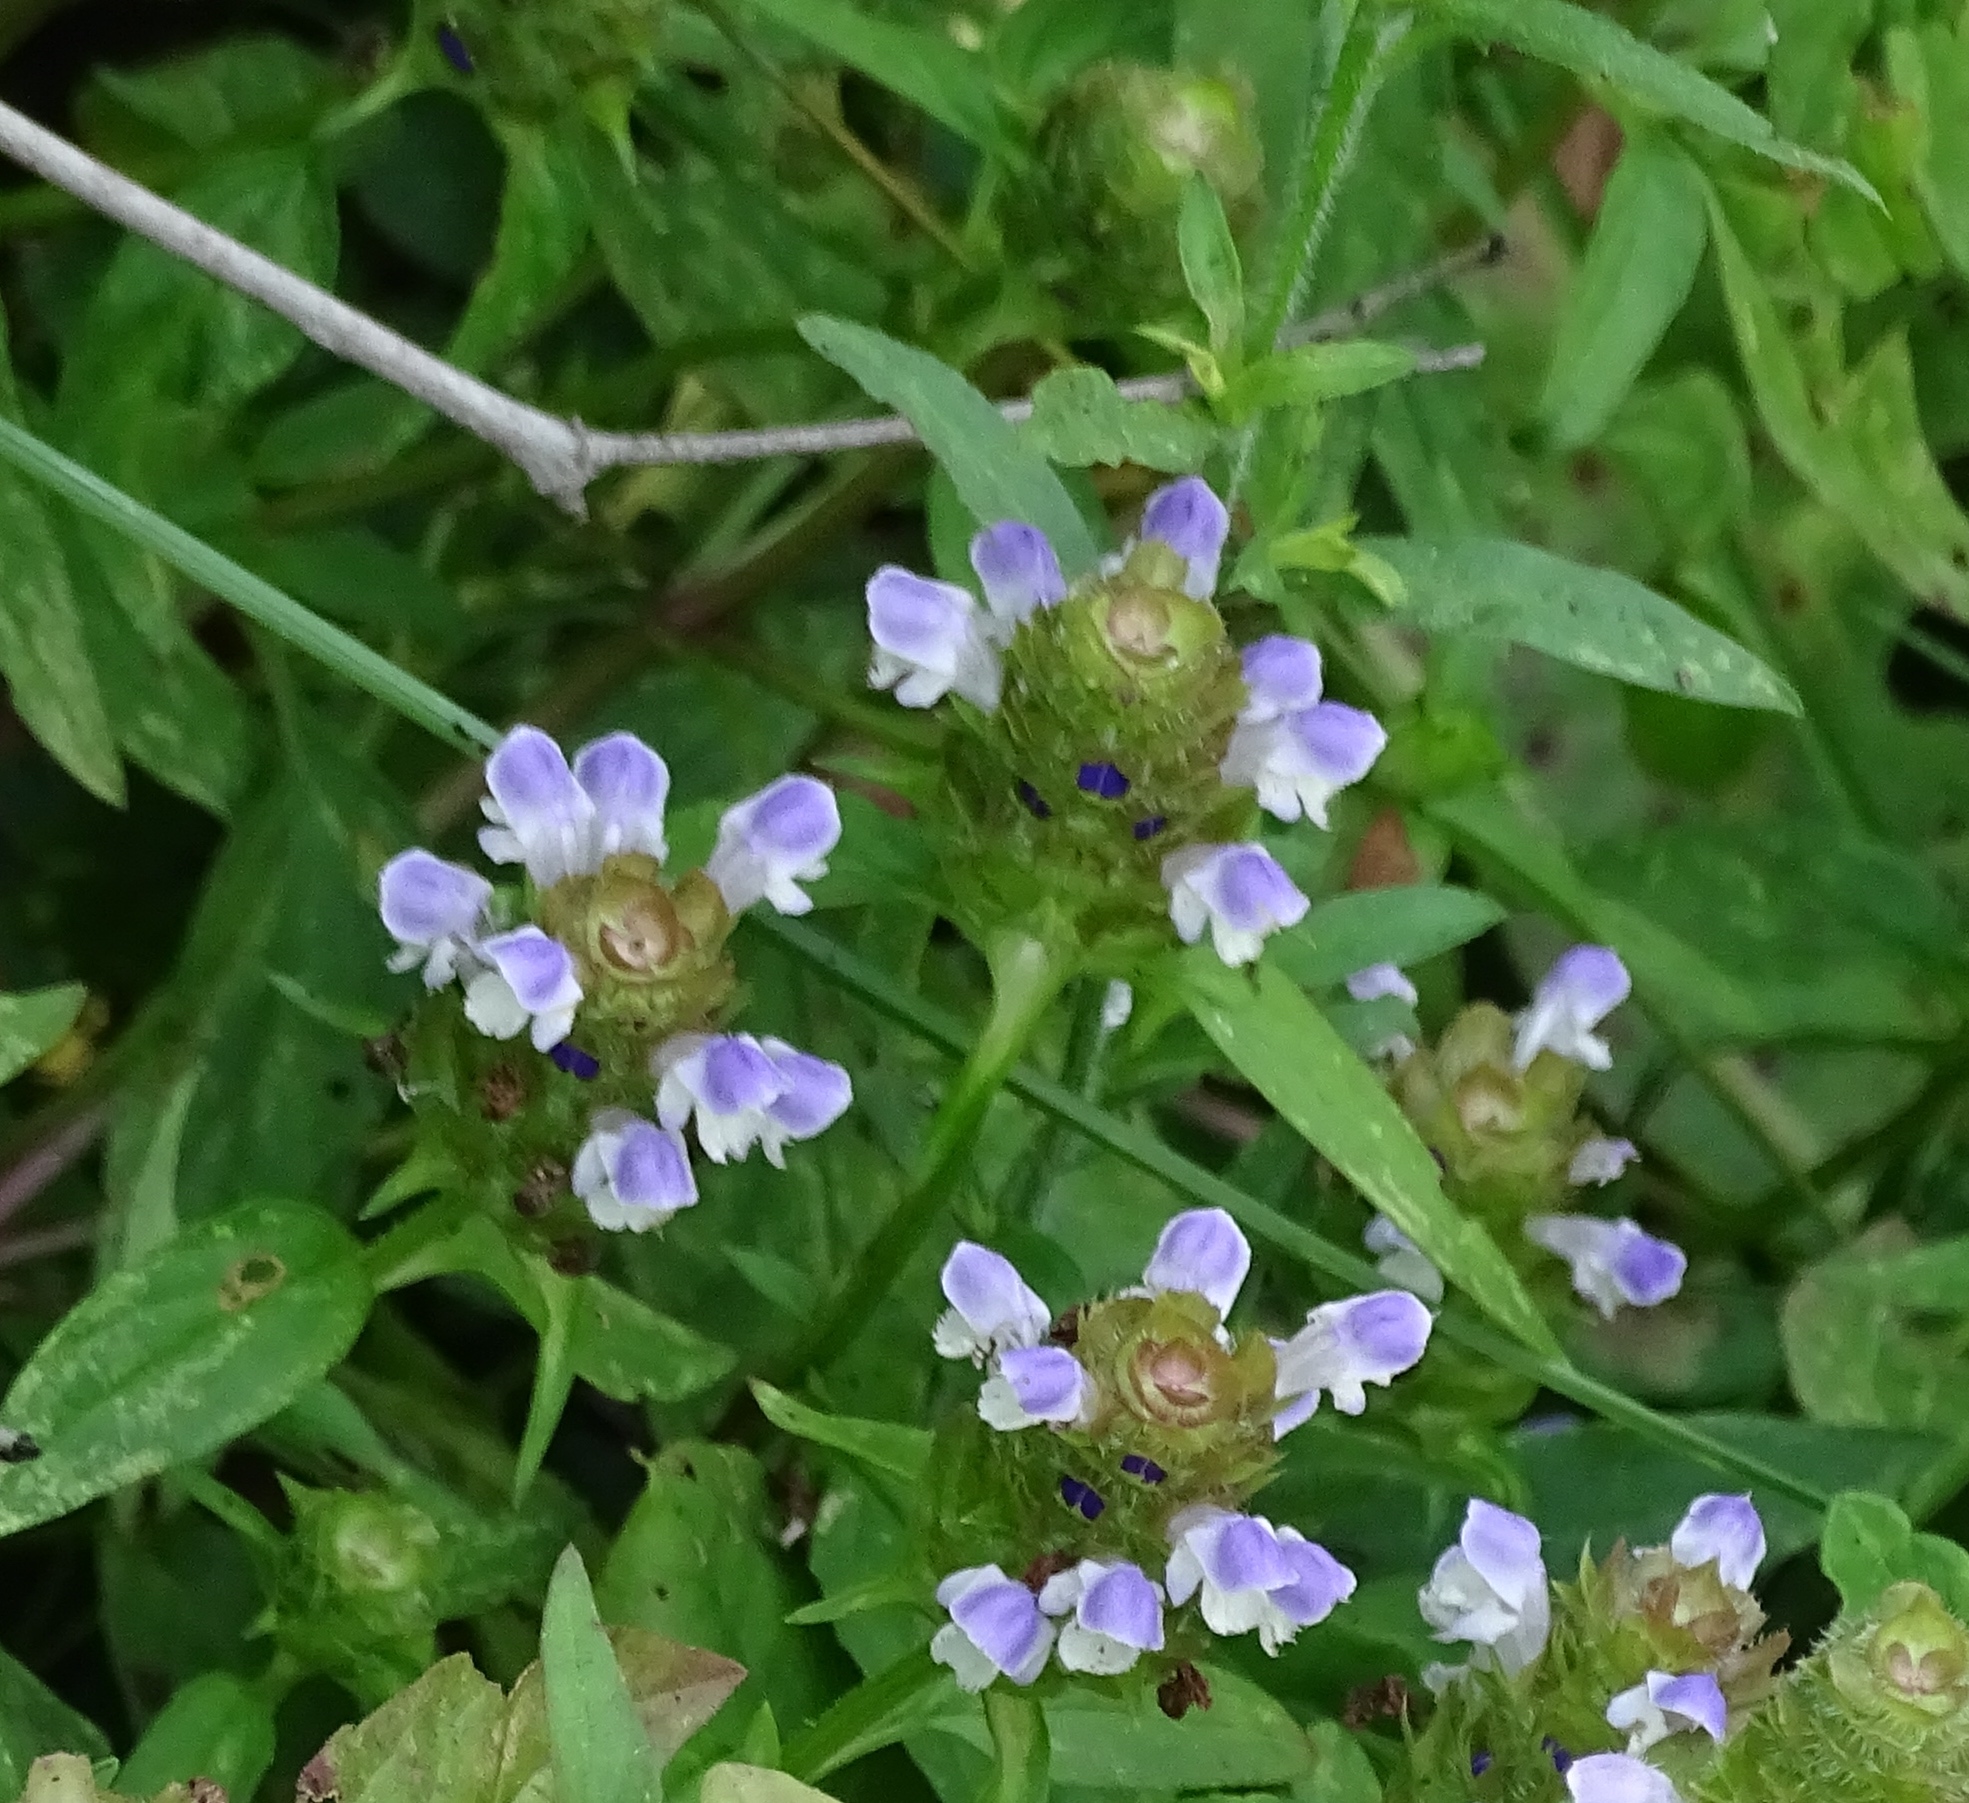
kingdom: Plantae
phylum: Tracheophyta
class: Magnoliopsida
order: Lamiales
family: Lamiaceae
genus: Prunella
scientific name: Prunella vulgaris
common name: Heal-all
